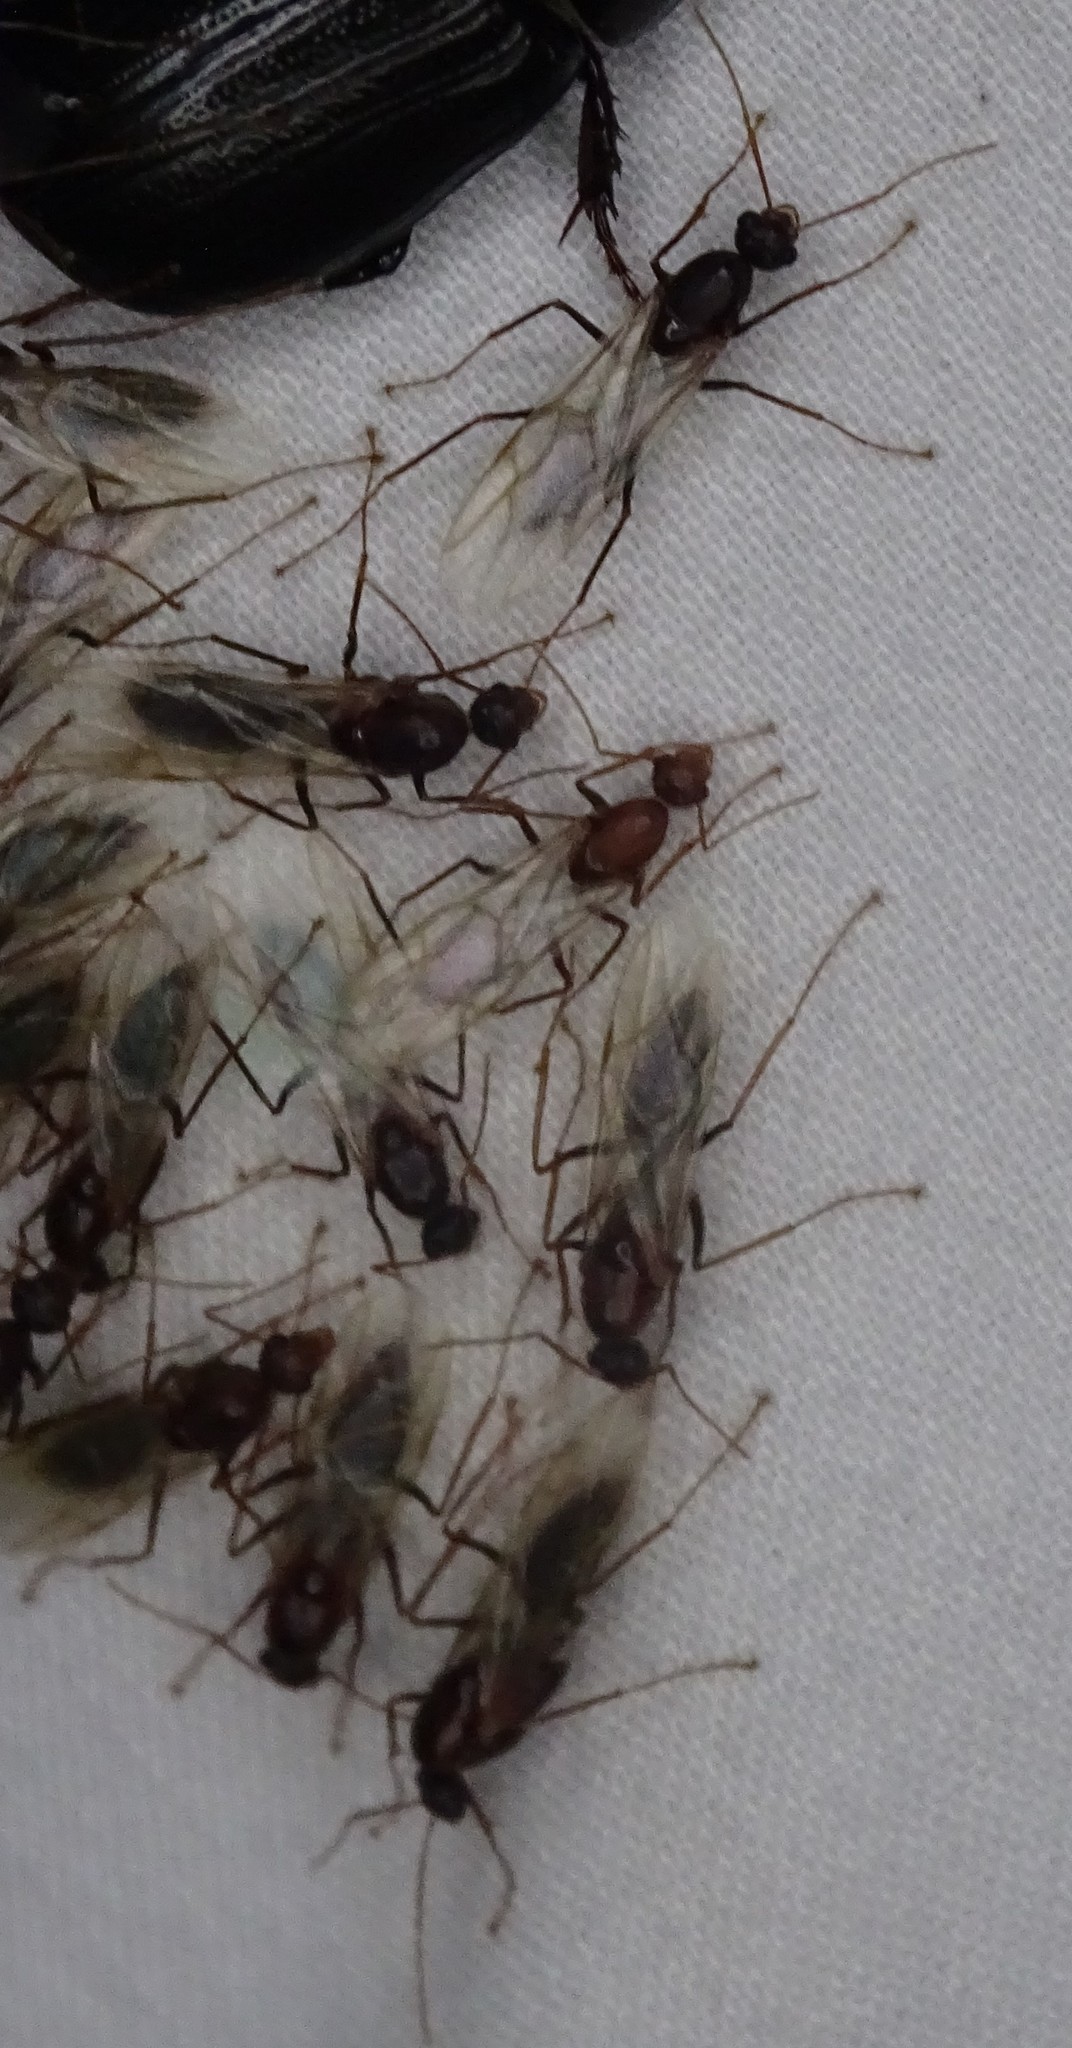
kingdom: Animalia
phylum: Arthropoda
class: Insecta
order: Hymenoptera
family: Formicidae
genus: Camponotus
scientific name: Camponotus floridanus
